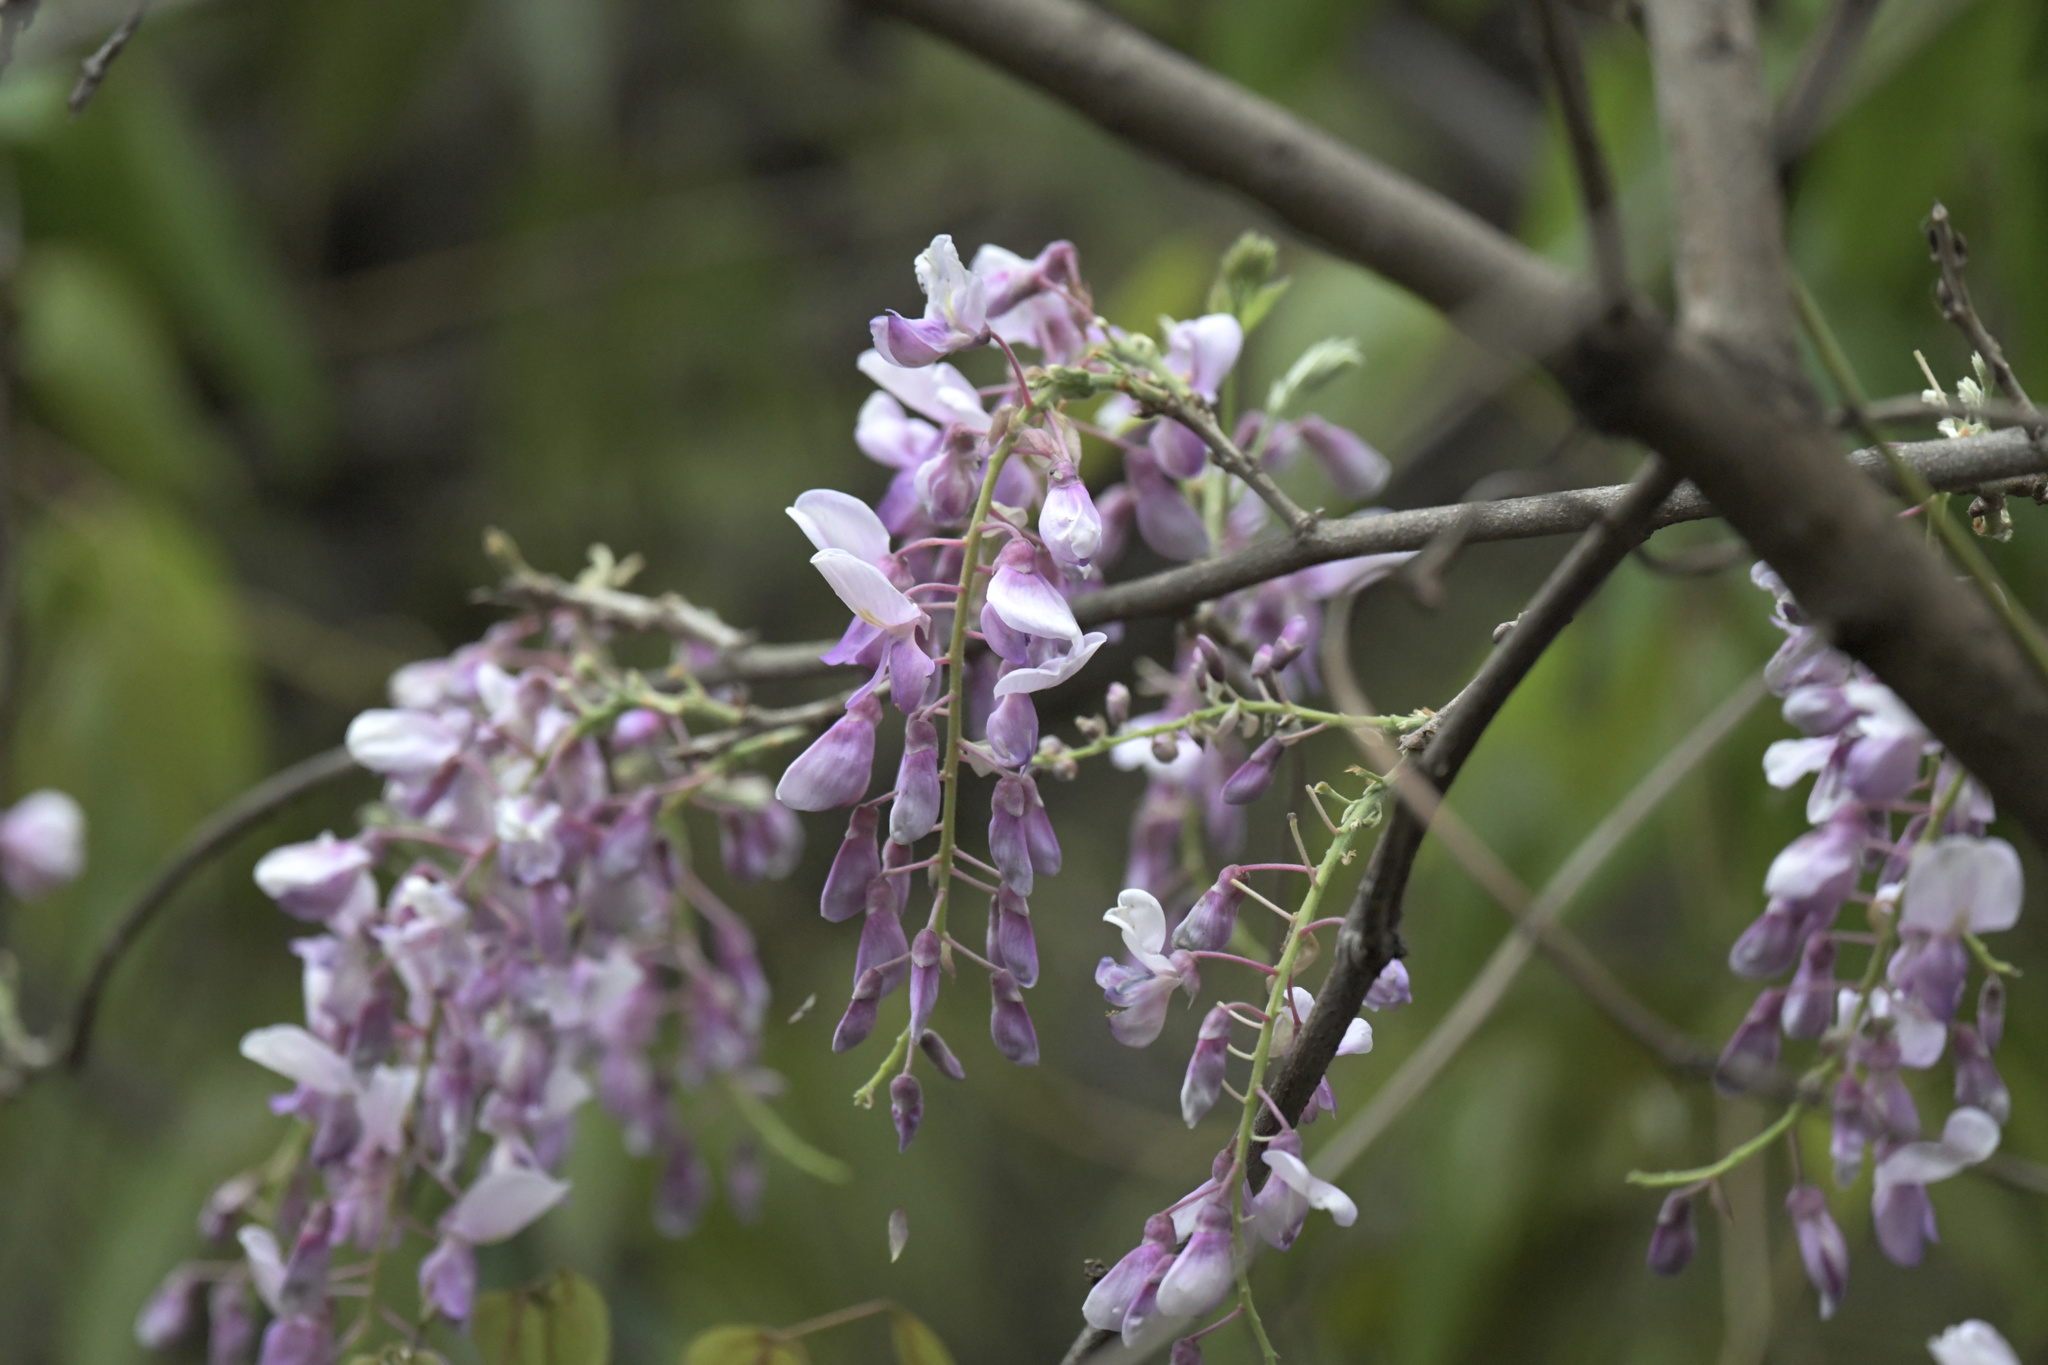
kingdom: Plantae
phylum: Tracheophyta
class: Magnoliopsida
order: Fabales
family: Fabaceae
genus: Wisteria
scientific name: Wisteria sinensis
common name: Chinese wisteria
